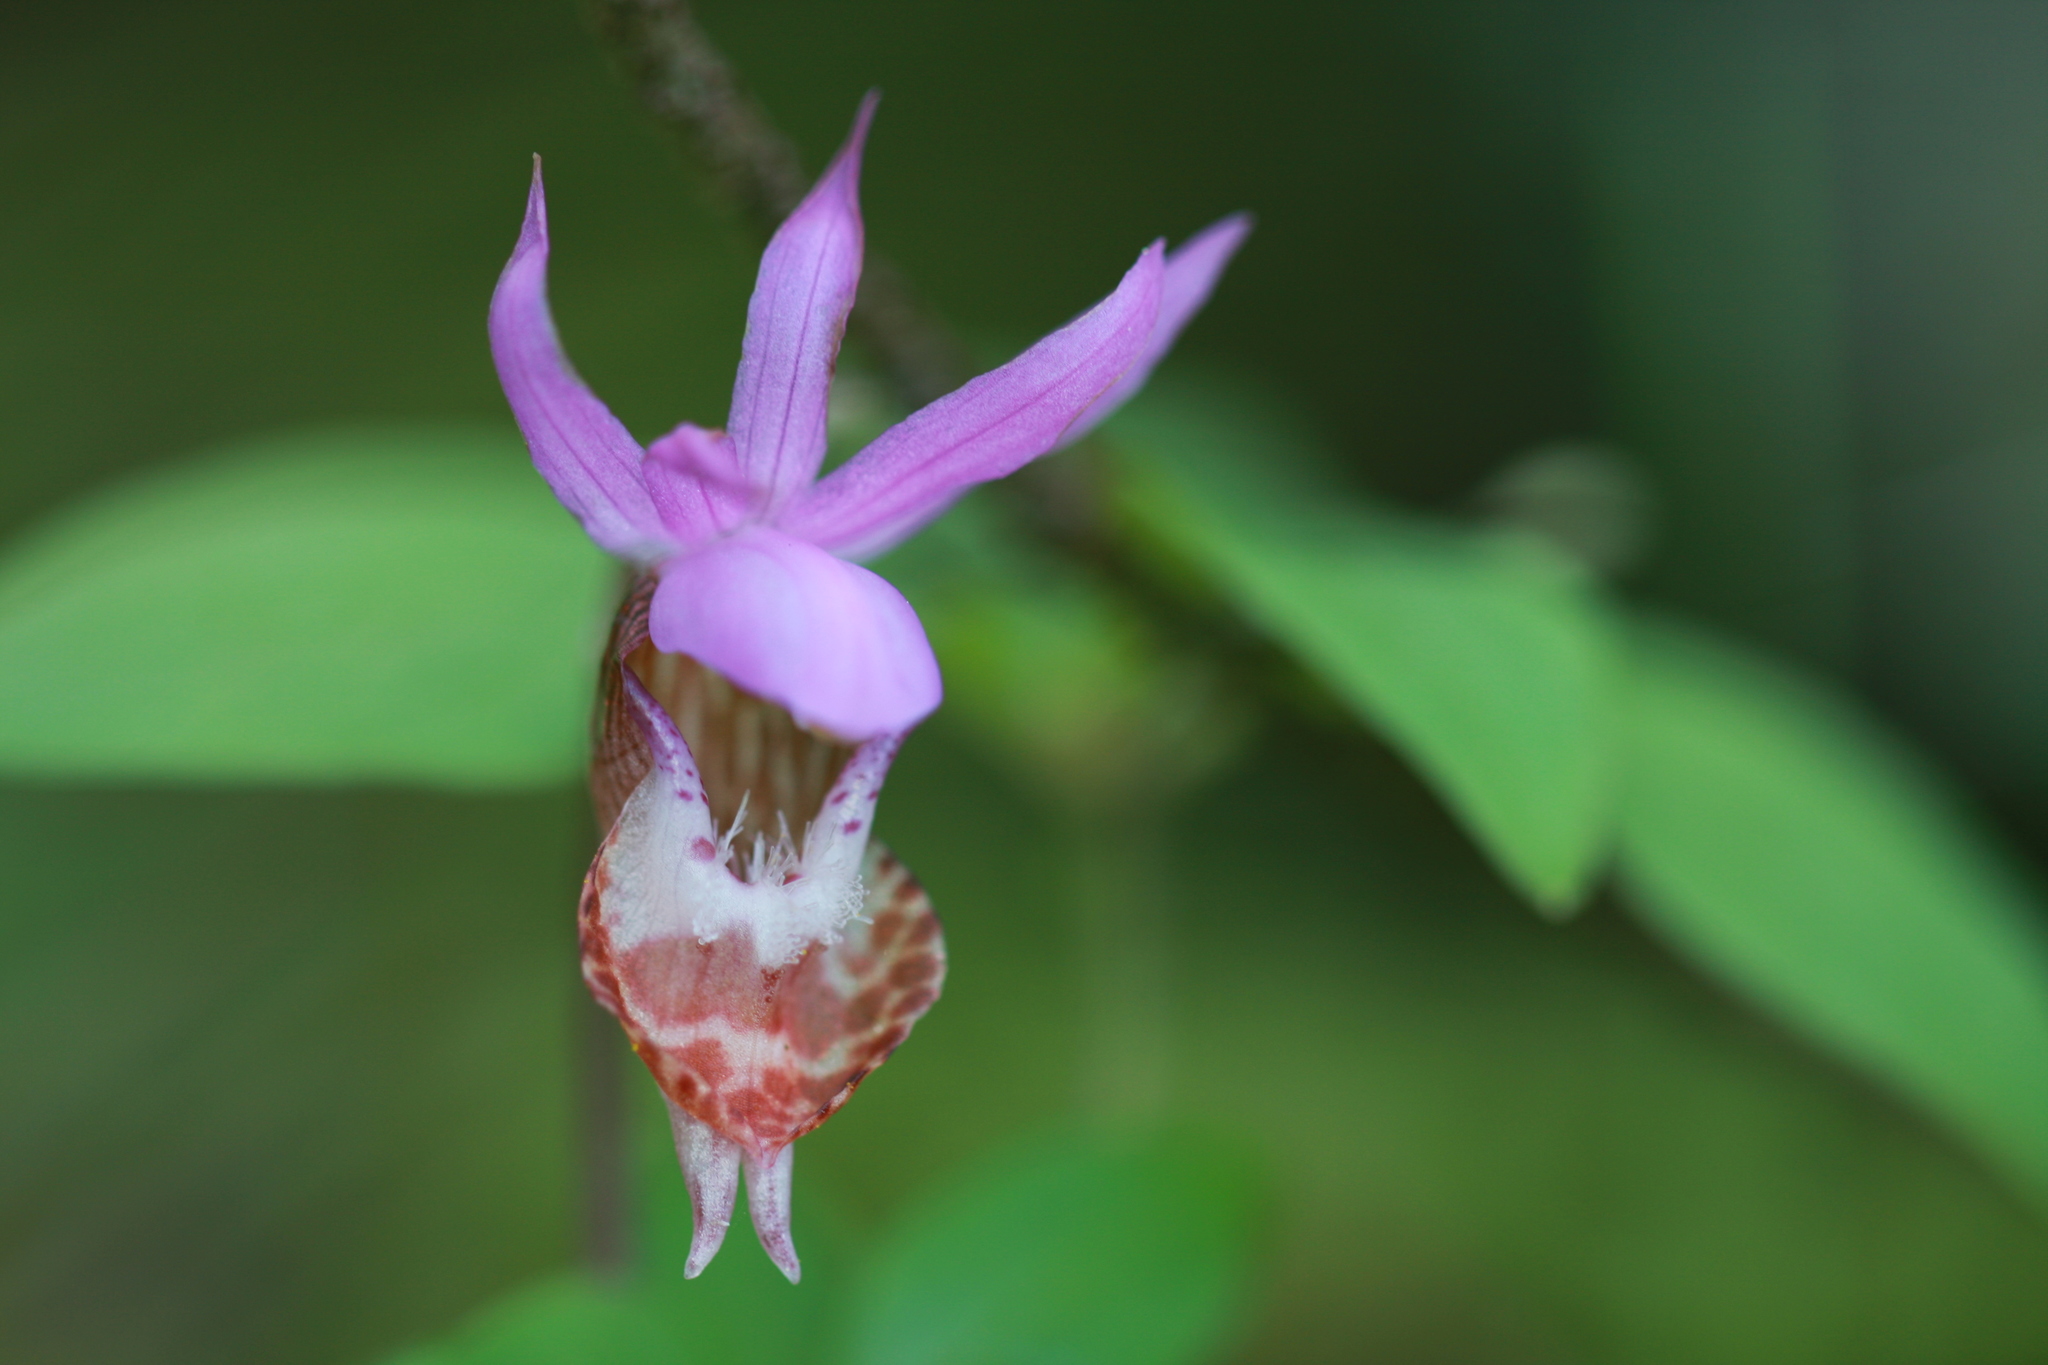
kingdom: Plantae
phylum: Tracheophyta
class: Liliopsida
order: Asparagales
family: Orchidaceae
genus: Calypso
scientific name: Calypso bulbosa
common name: Calypso
